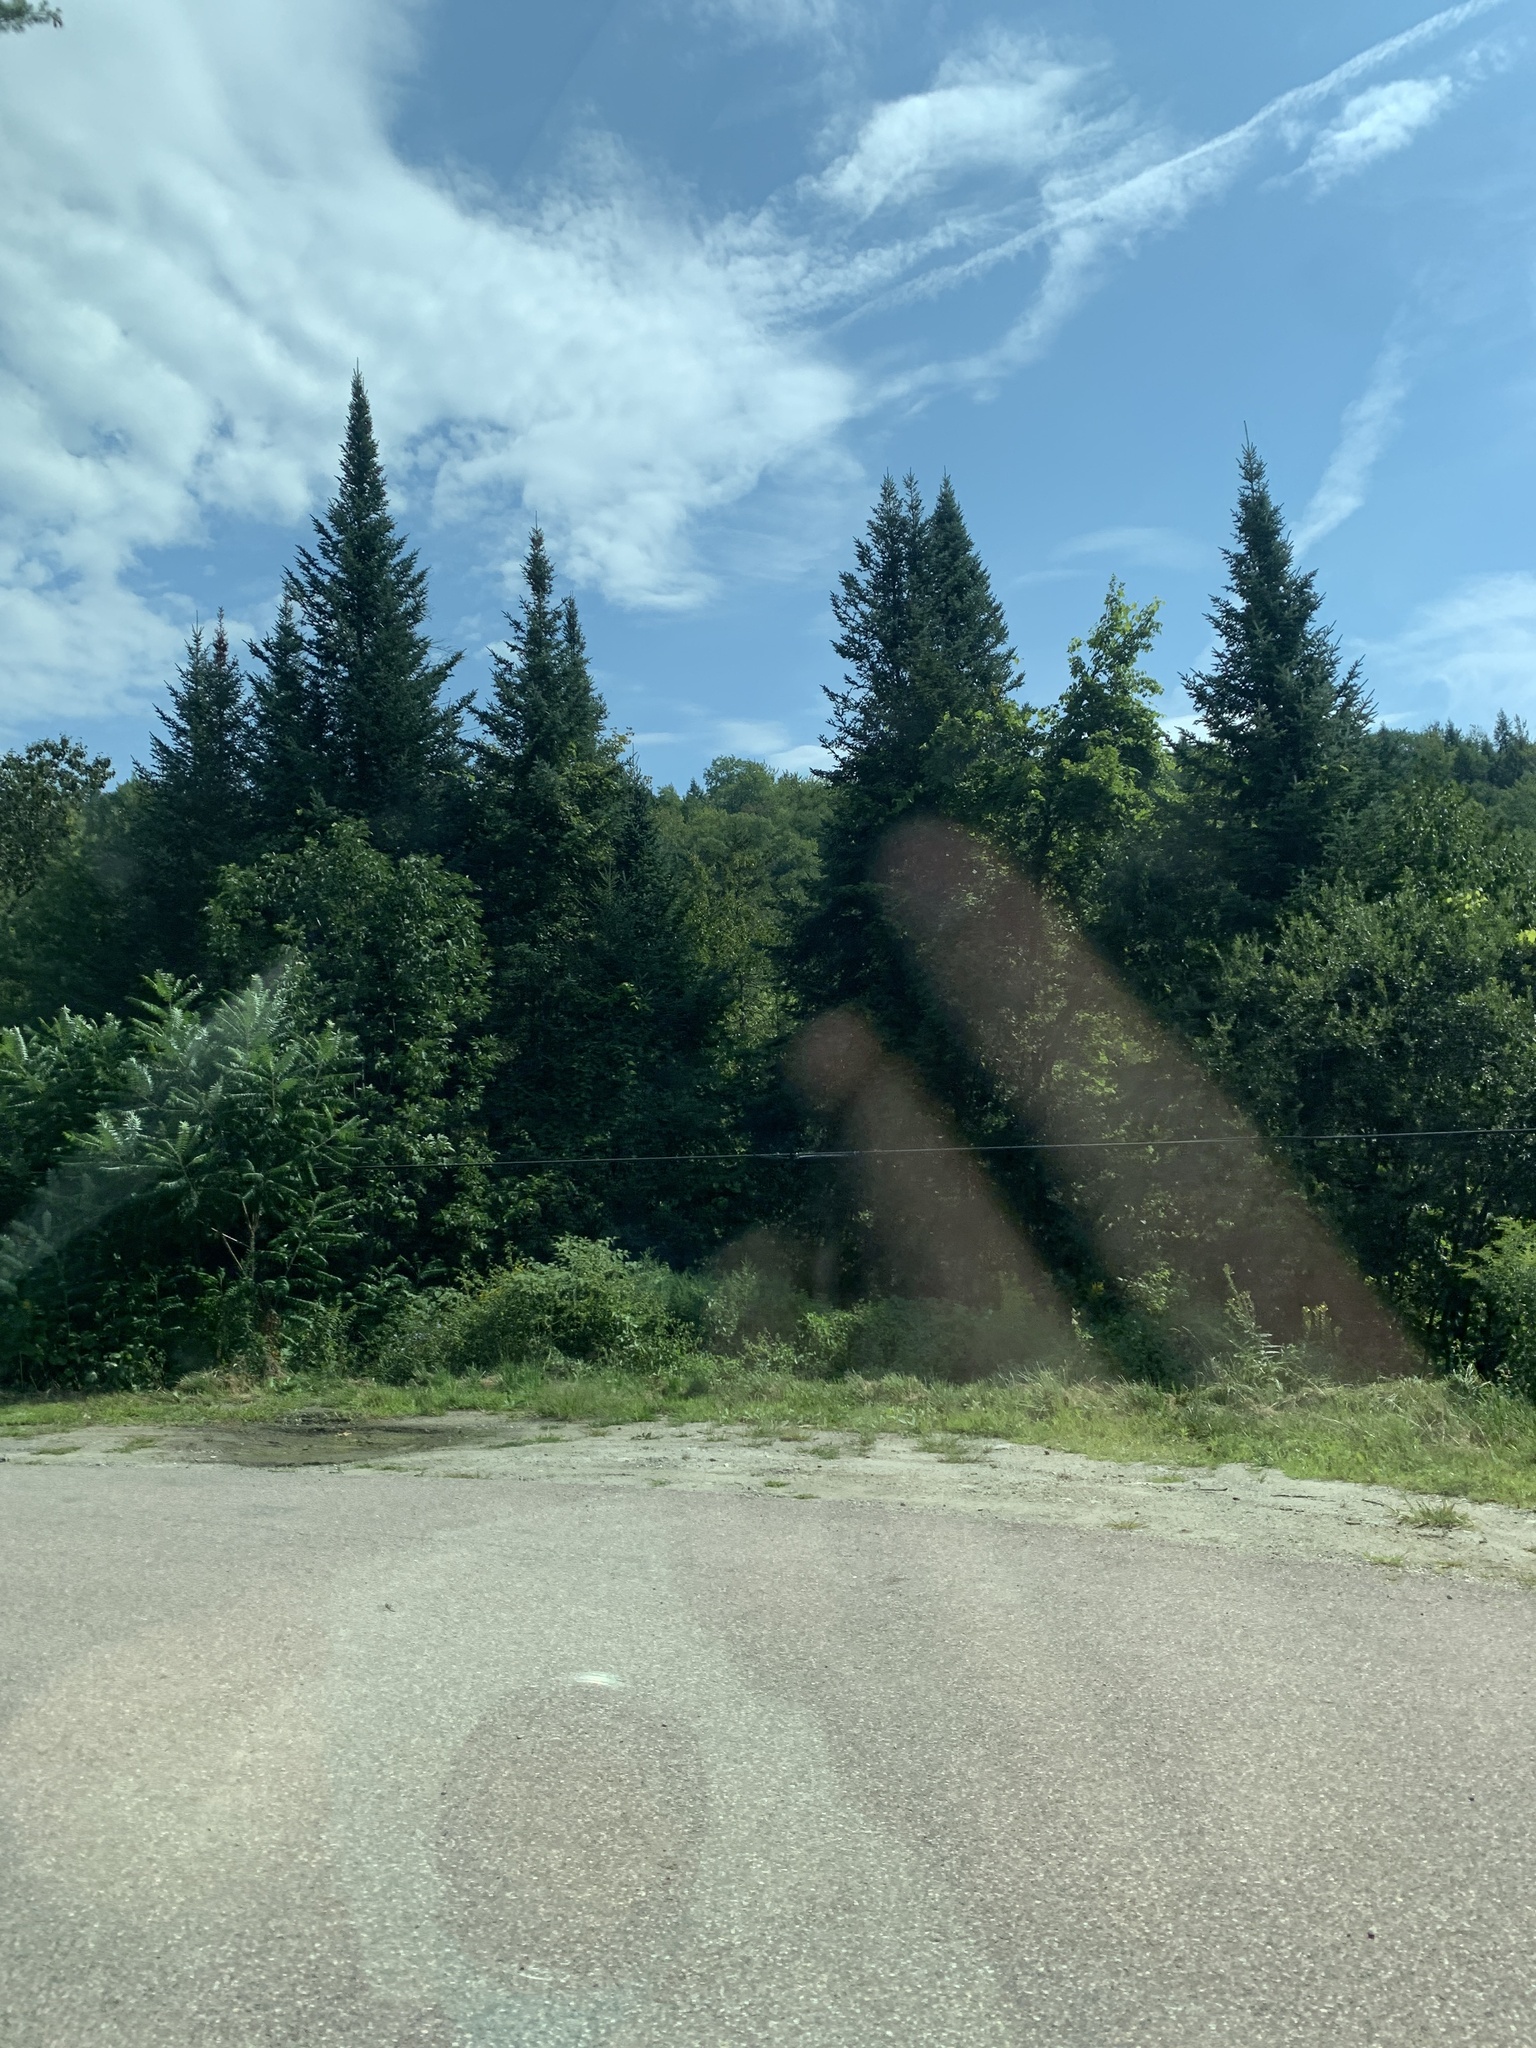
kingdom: Plantae
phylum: Tracheophyta
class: Magnoliopsida
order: Sapindales
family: Anacardiaceae
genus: Rhus
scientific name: Rhus typhina
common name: Staghorn sumac
